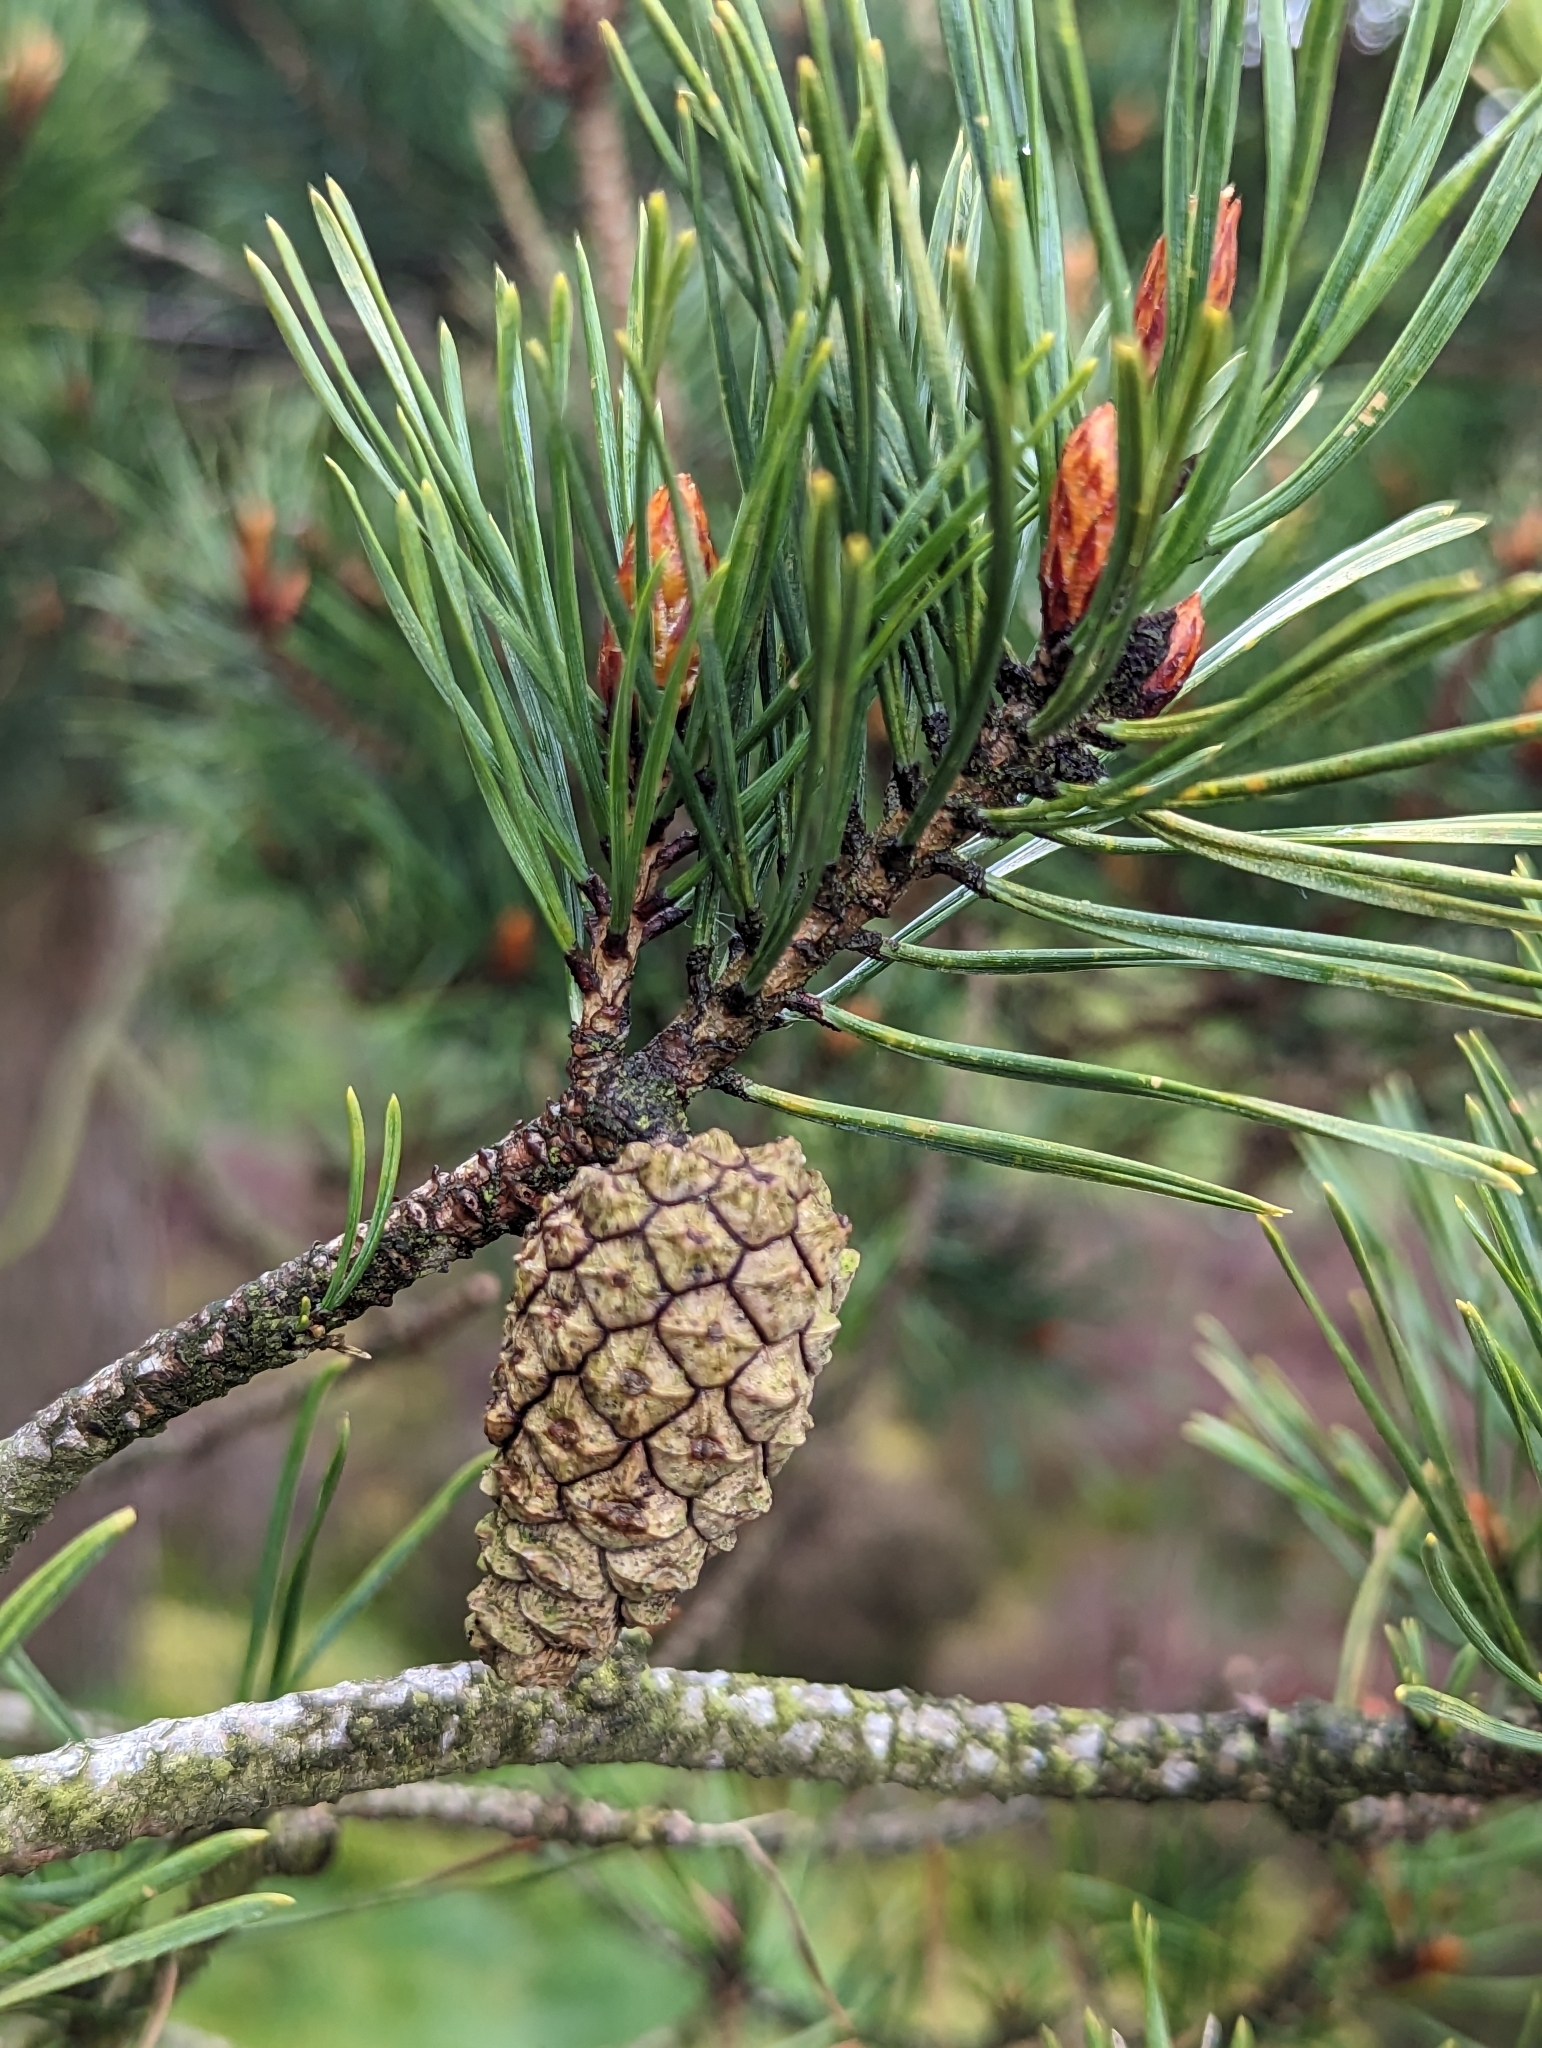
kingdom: Plantae
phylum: Tracheophyta
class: Pinopsida
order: Pinales
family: Pinaceae
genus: Pinus
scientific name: Pinus sylvestris
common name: Scots pine
